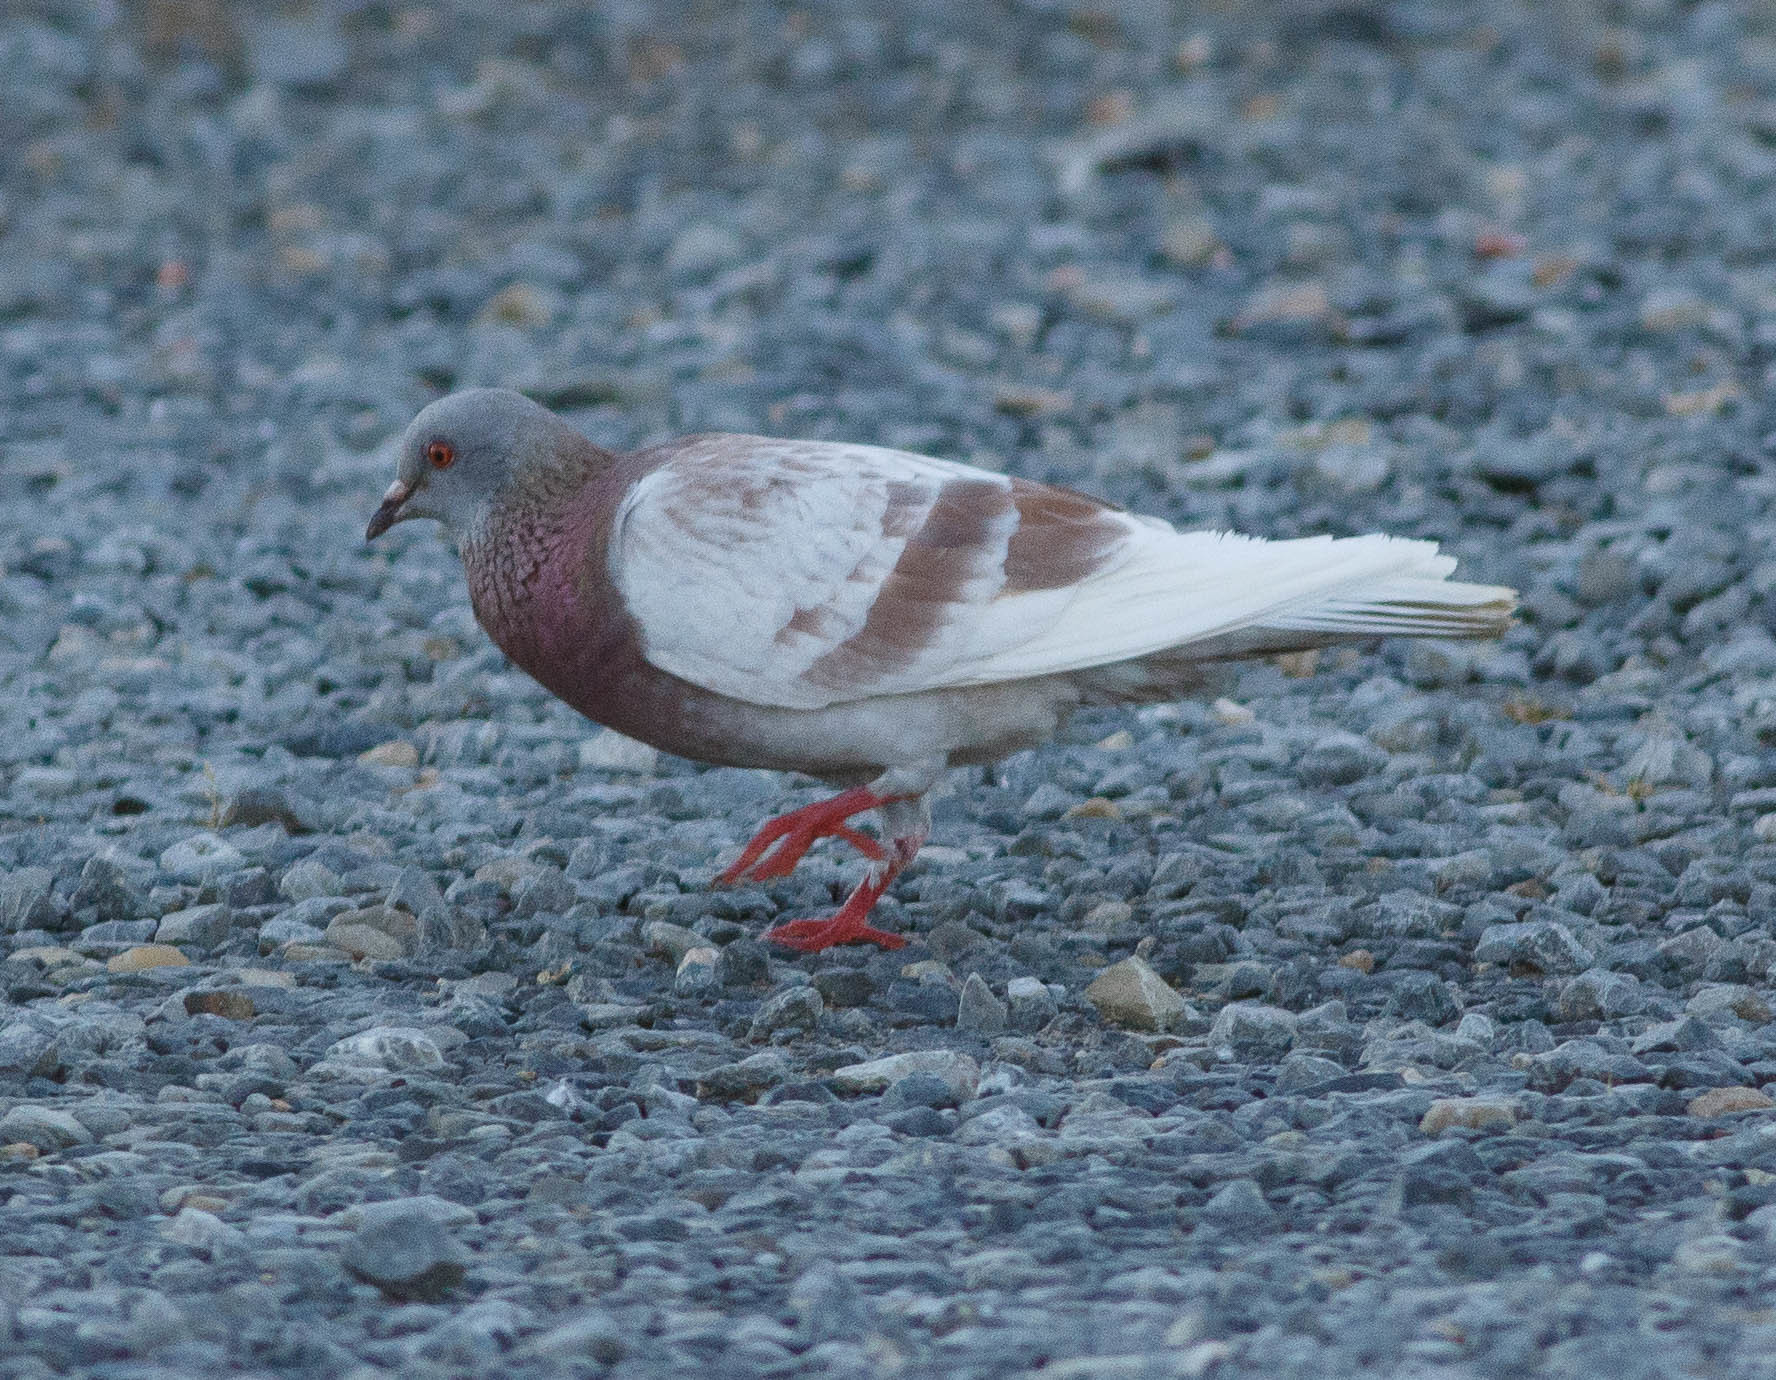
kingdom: Animalia
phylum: Chordata
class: Aves
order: Columbiformes
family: Columbidae
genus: Columba
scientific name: Columba livia
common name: Rock pigeon
